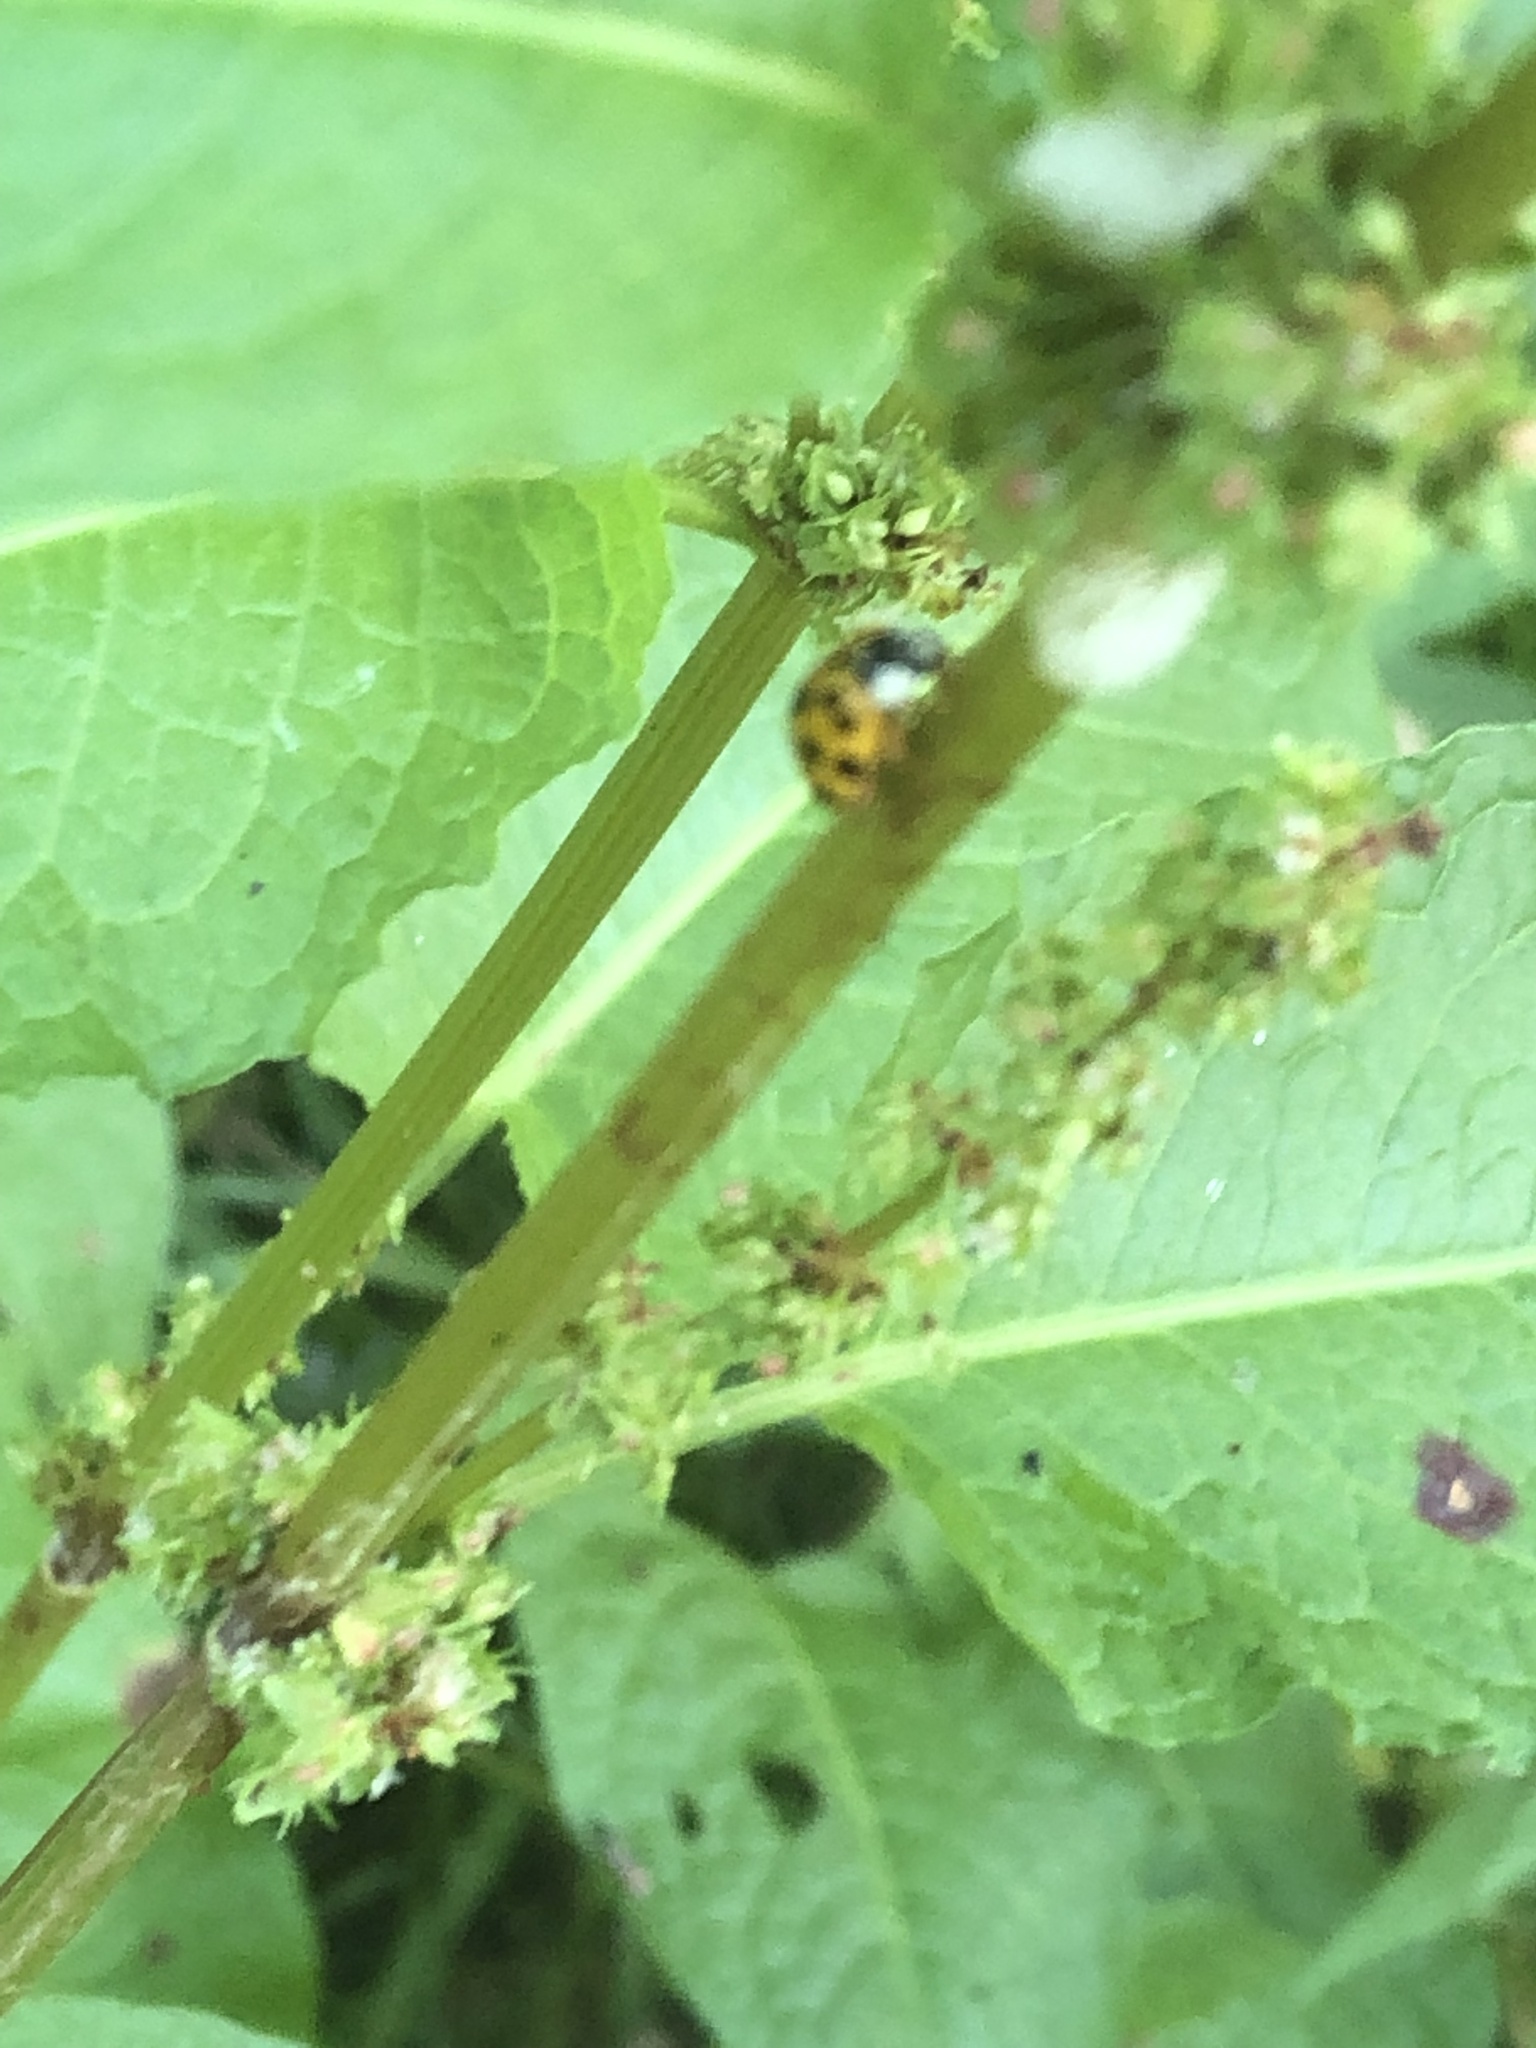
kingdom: Animalia
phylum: Arthropoda
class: Insecta
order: Coleoptera
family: Coccinellidae
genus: Harmonia
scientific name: Harmonia axyridis
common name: Harlequin ladybird
